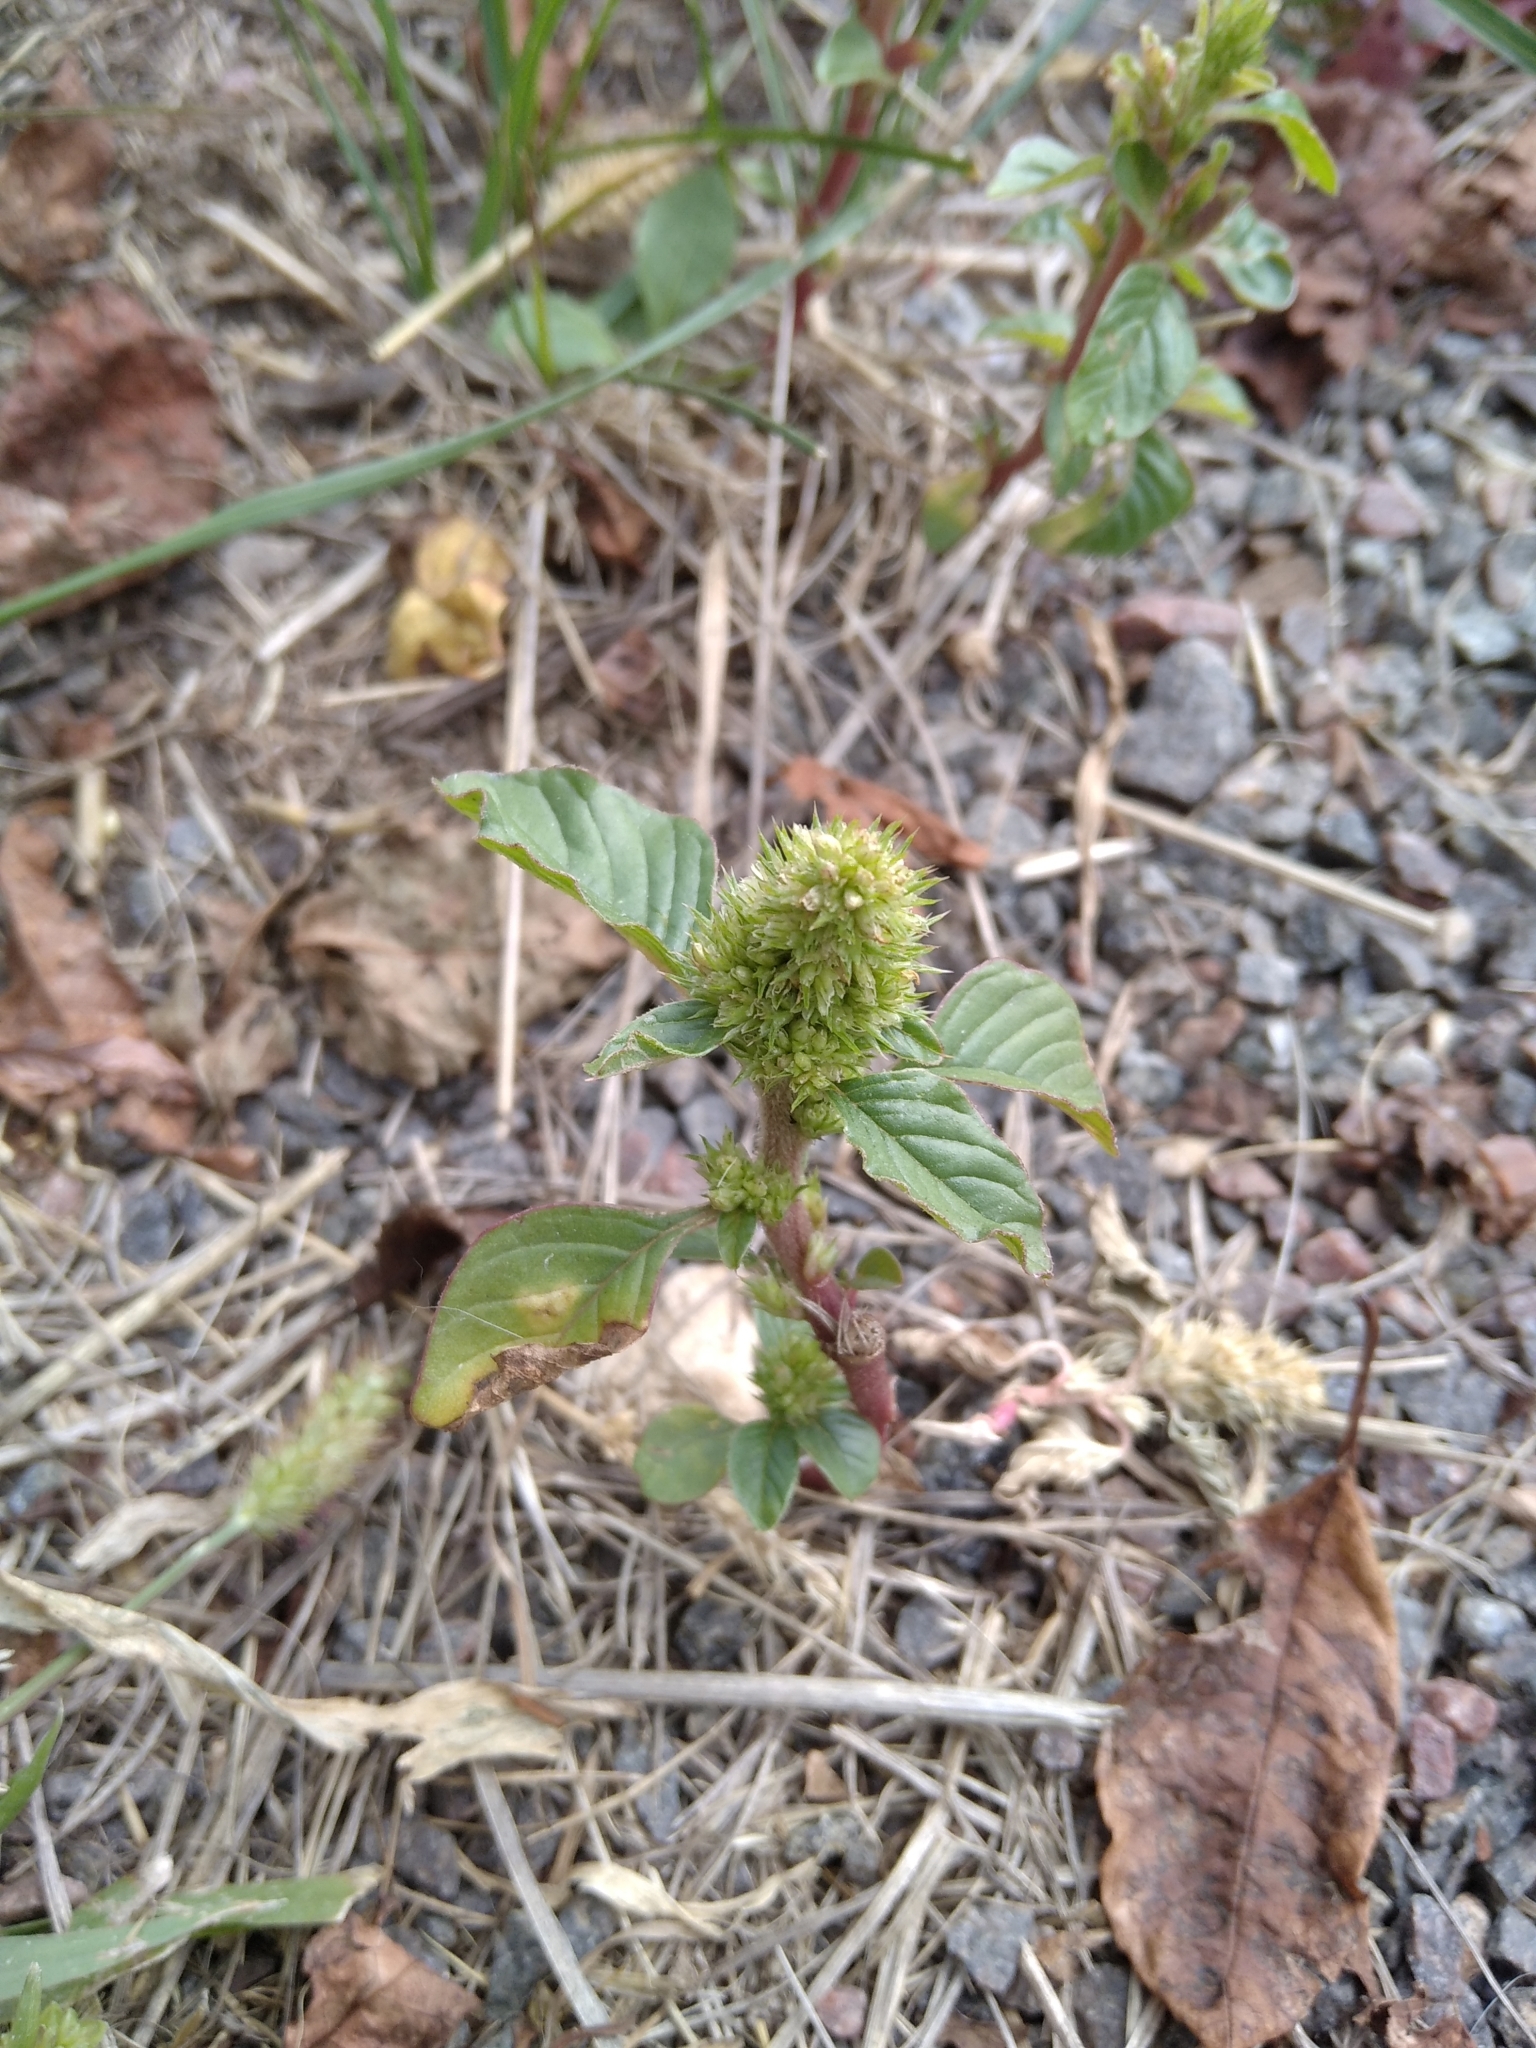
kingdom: Plantae
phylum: Tracheophyta
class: Magnoliopsida
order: Caryophyllales
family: Amaranthaceae
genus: Amaranthus
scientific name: Amaranthus retroflexus
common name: Redroot amaranth
